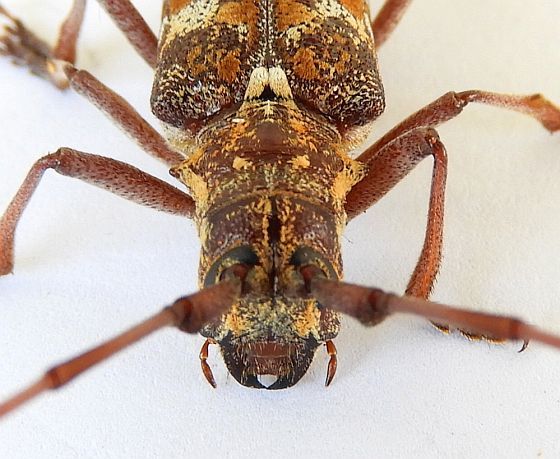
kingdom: Animalia
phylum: Arthropoda
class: Insecta
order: Coleoptera
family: Cerambycidae
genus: Monochamus
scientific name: Monochamus clamator
